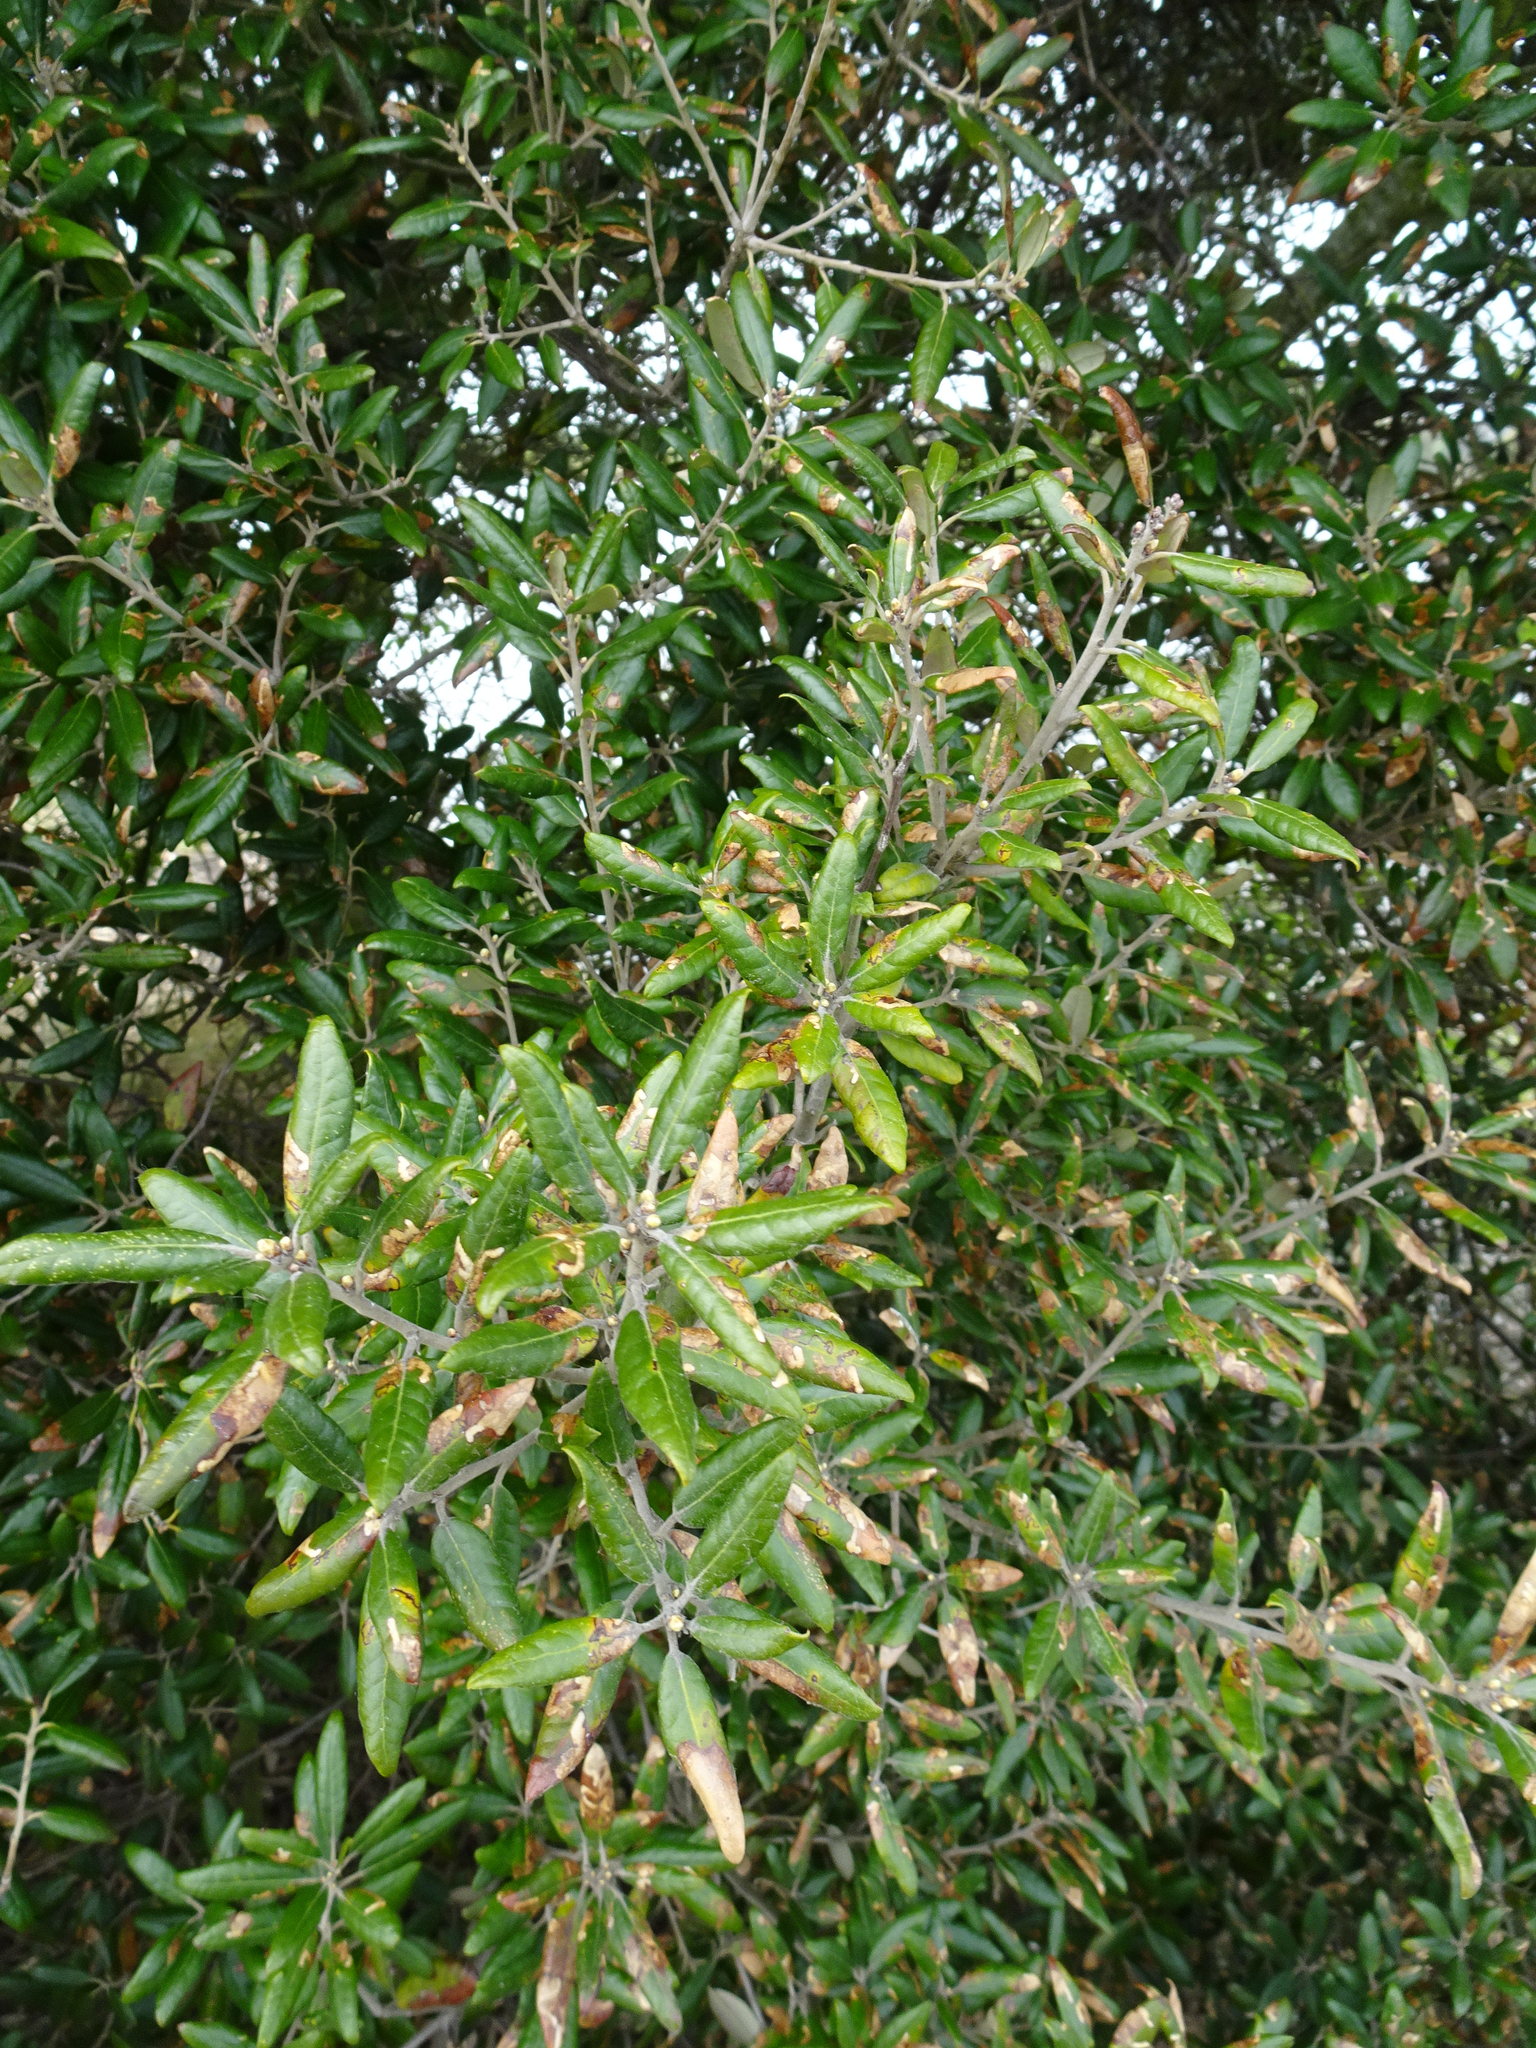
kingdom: Plantae
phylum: Tracheophyta
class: Magnoliopsida
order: Fagales
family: Fagaceae
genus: Quercus
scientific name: Quercus ilex
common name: Evergreen oak
